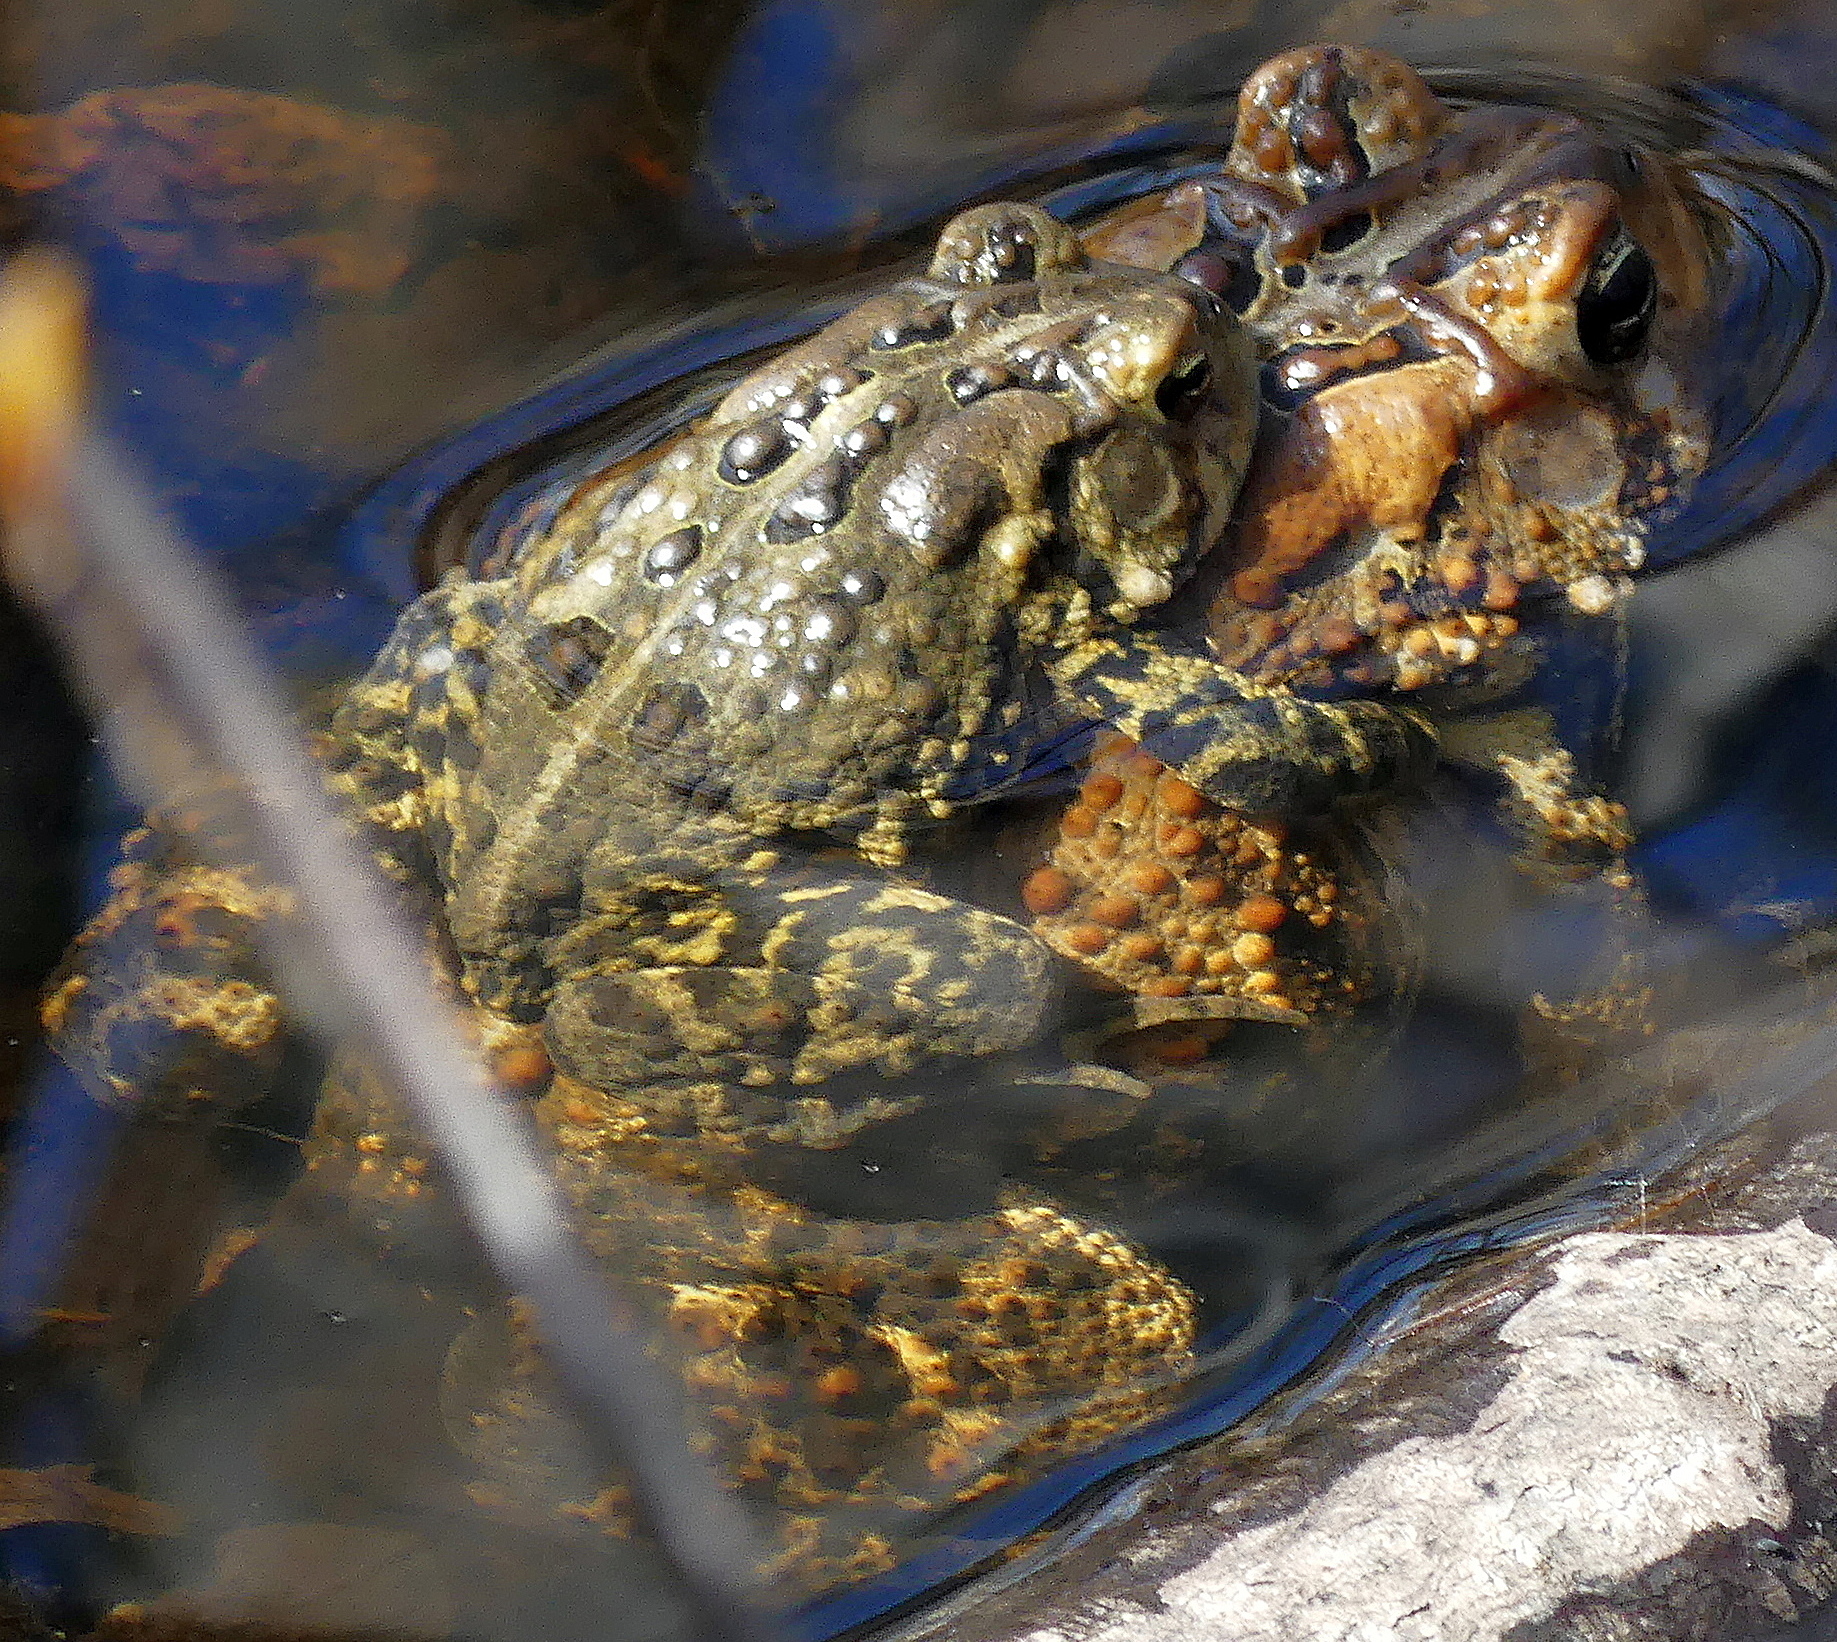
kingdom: Animalia
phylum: Chordata
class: Amphibia
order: Anura
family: Bufonidae
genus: Anaxyrus
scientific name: Anaxyrus americanus
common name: American toad
